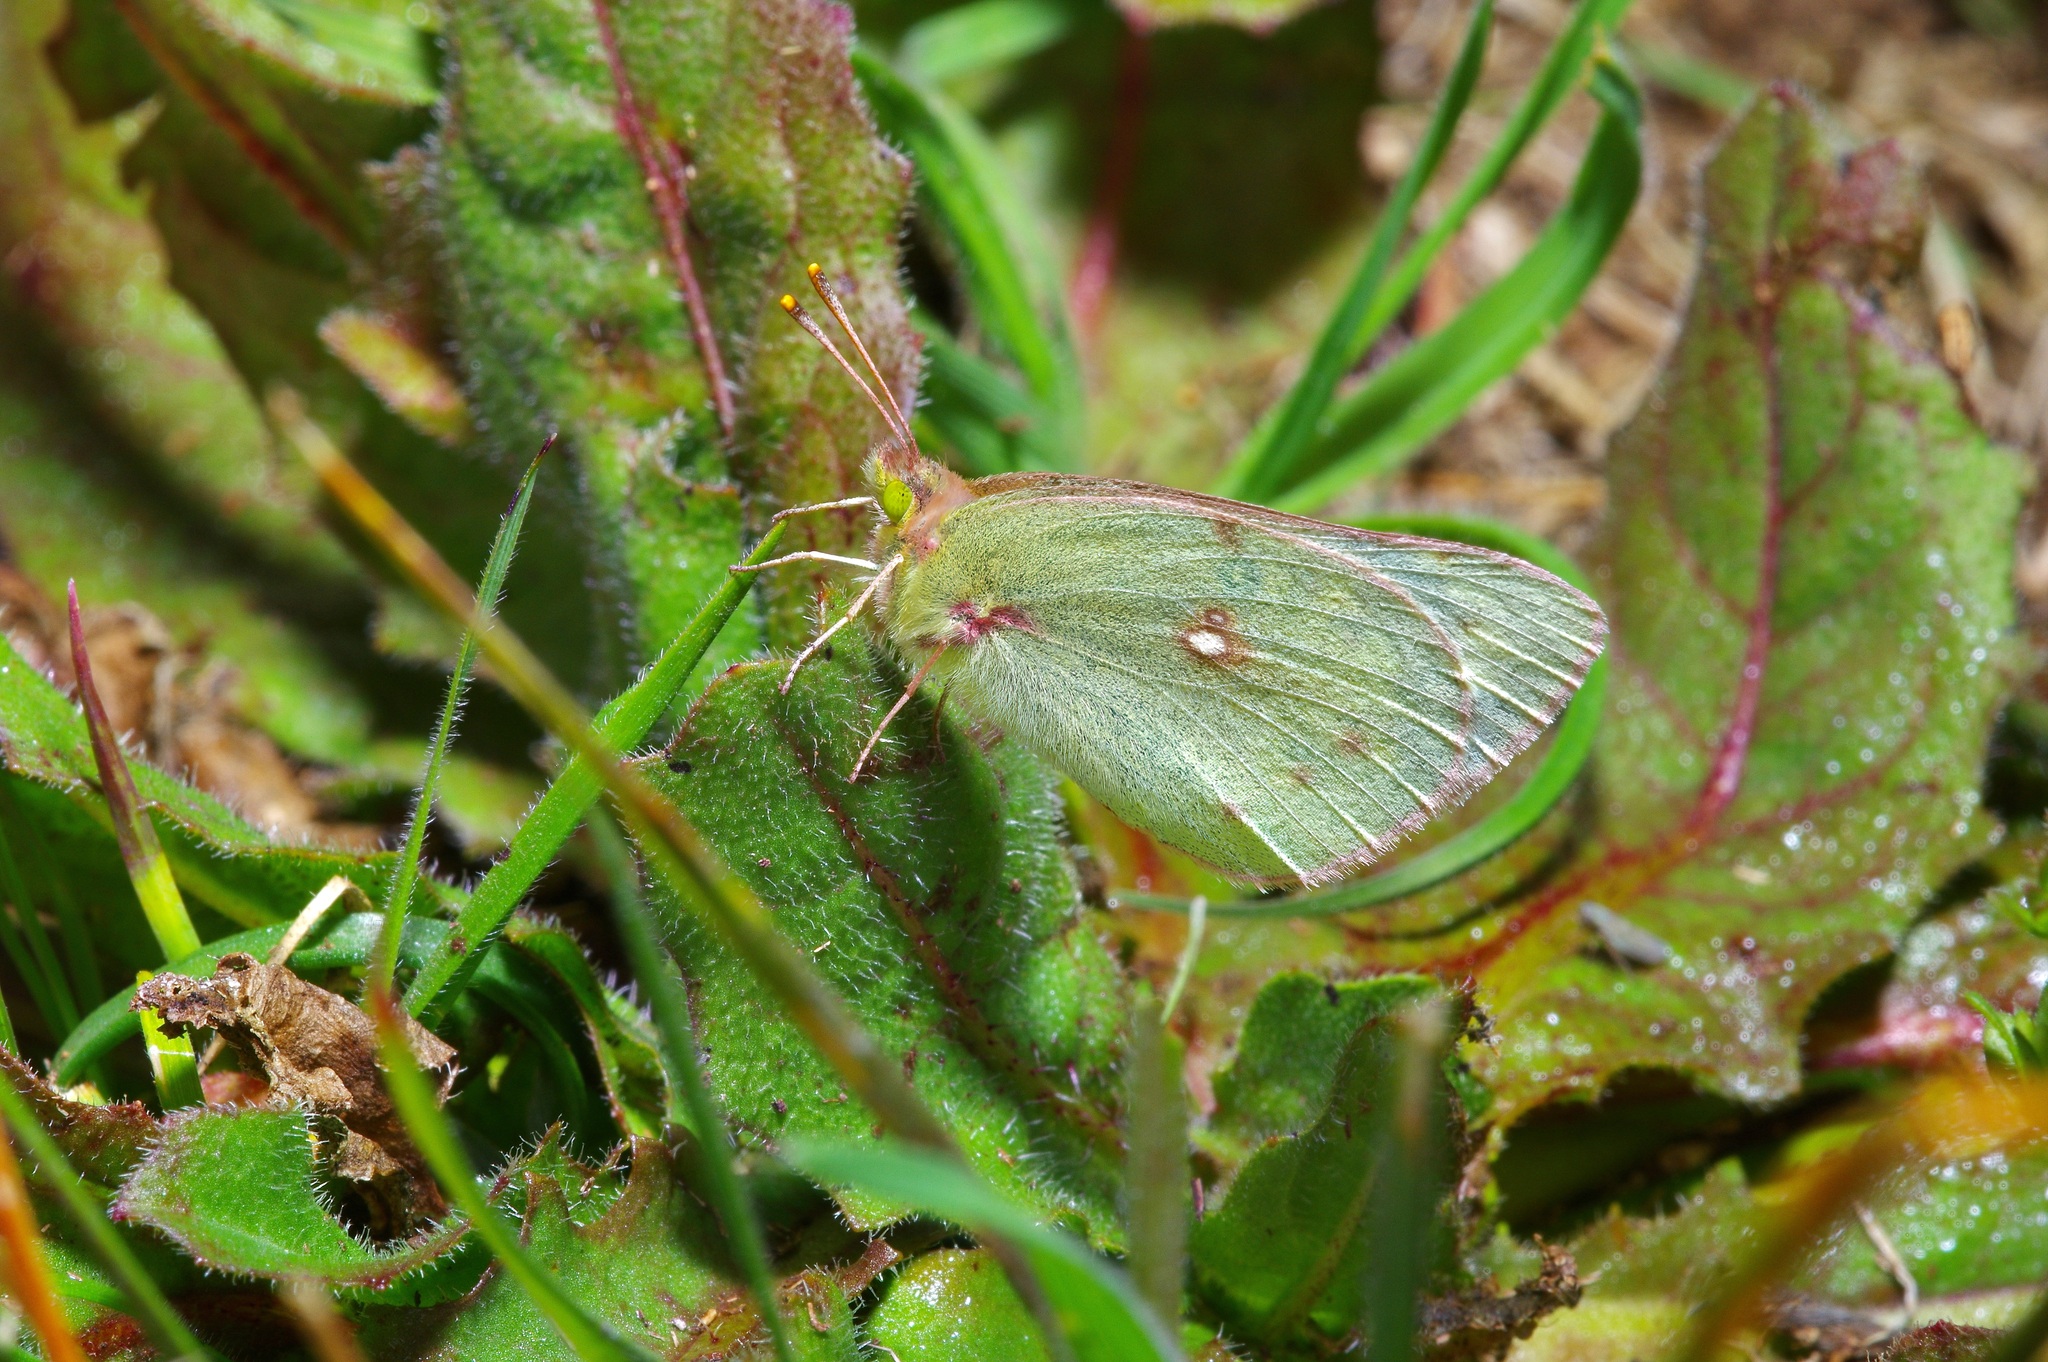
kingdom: Animalia
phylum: Arthropoda
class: Insecta
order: Lepidoptera
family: Pieridae
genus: Colias
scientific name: Colias eurytheme
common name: Alfalfa butterfly
